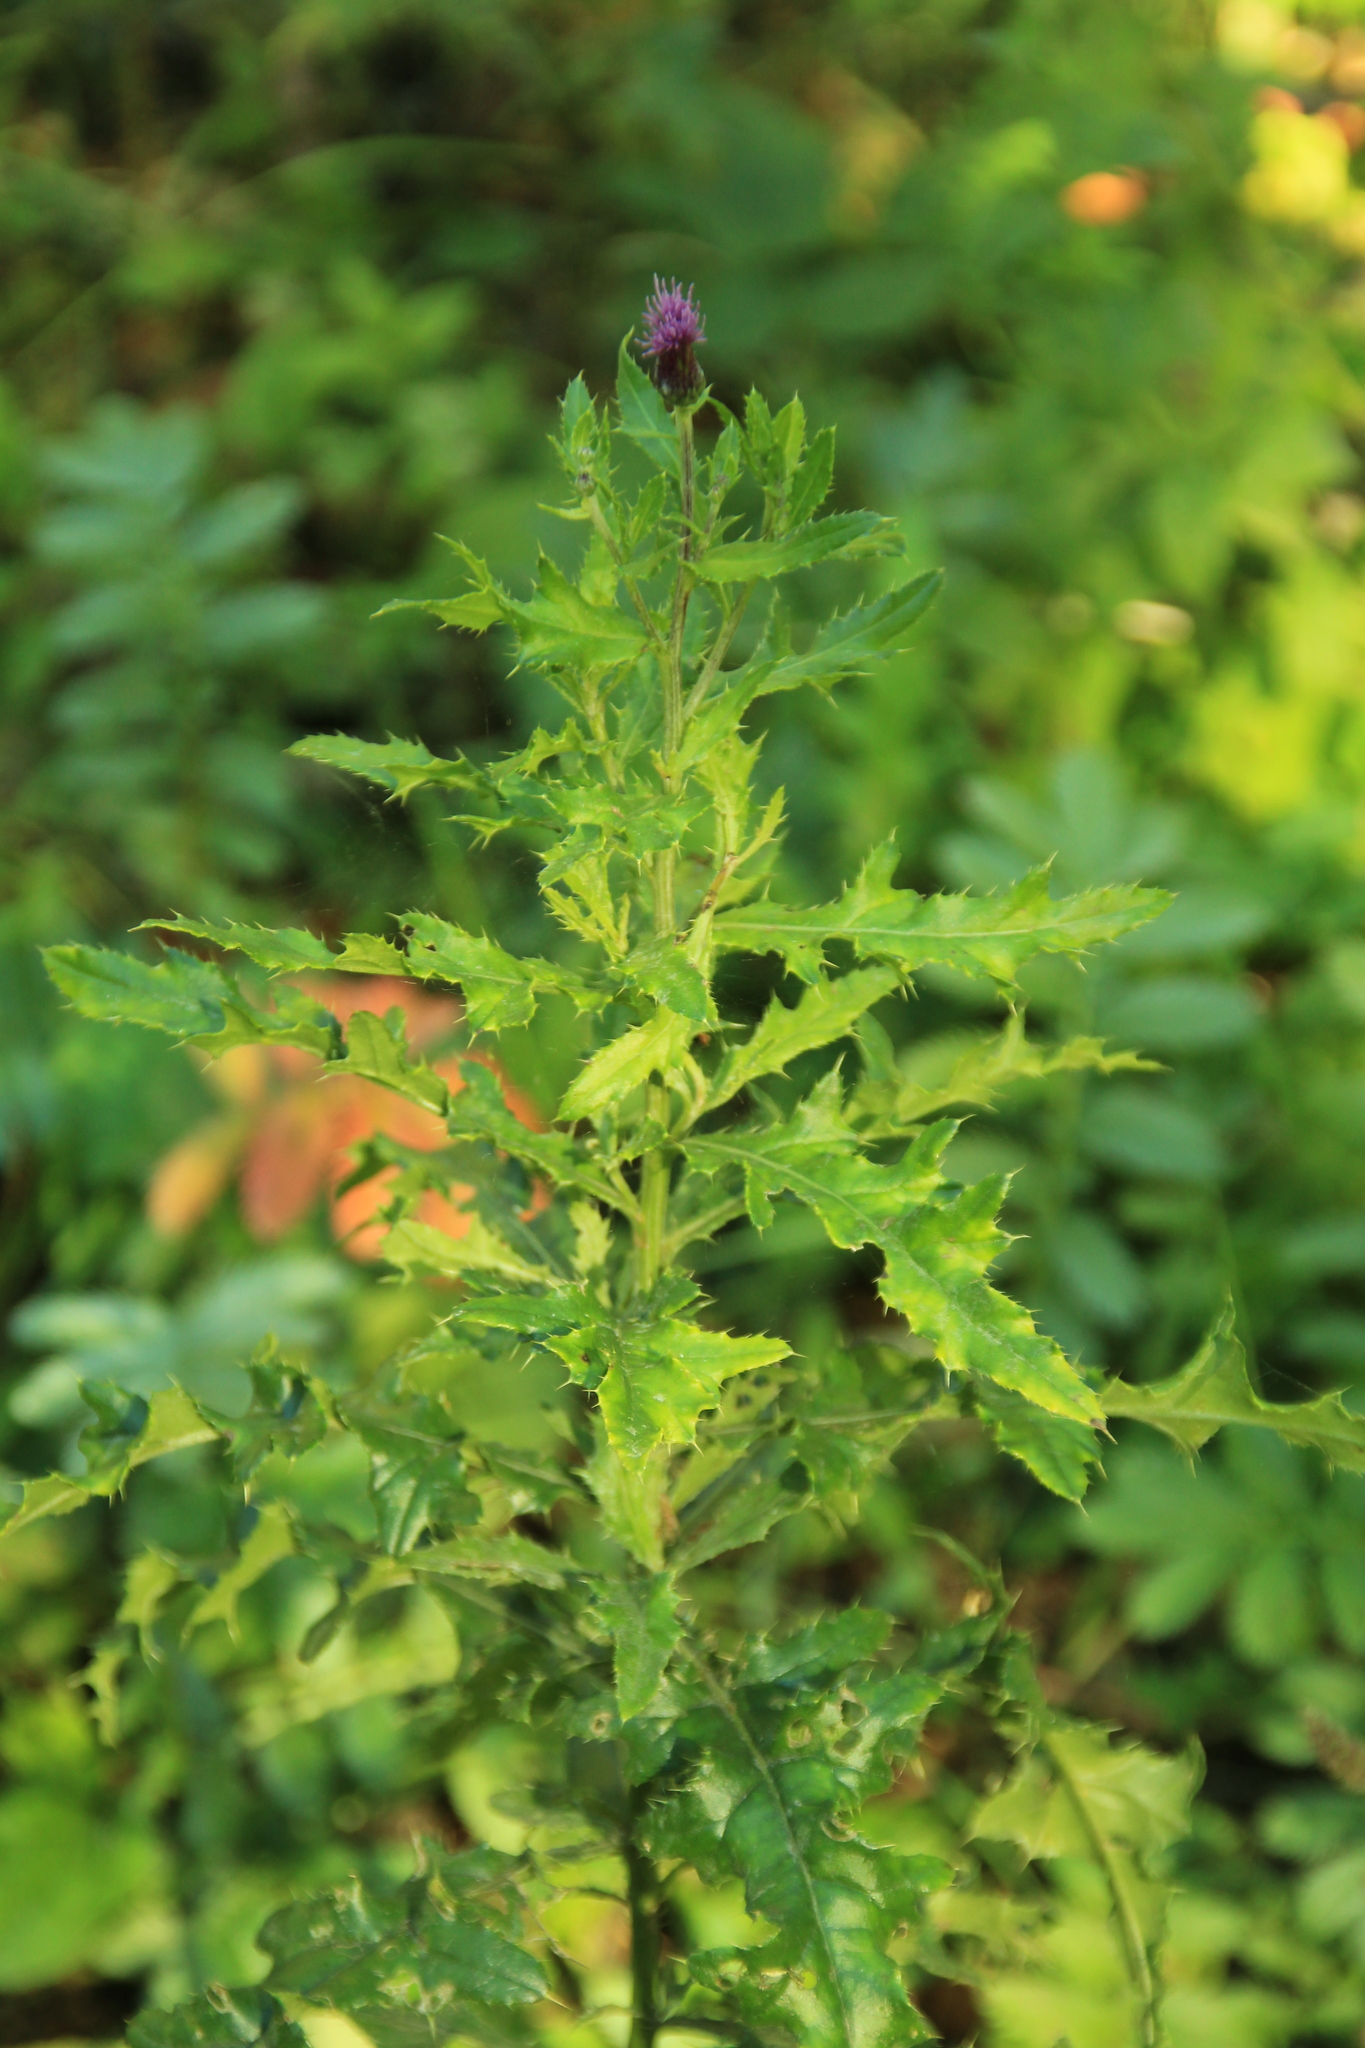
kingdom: Plantae
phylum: Tracheophyta
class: Magnoliopsida
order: Asterales
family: Asteraceae
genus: Cirsium
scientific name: Cirsium arvense
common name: Creeping thistle
